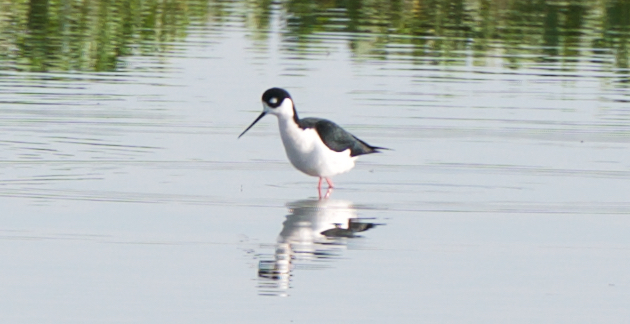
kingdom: Animalia
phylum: Chordata
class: Aves
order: Charadriiformes
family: Recurvirostridae
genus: Himantopus
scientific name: Himantopus mexicanus
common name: Black-necked stilt
